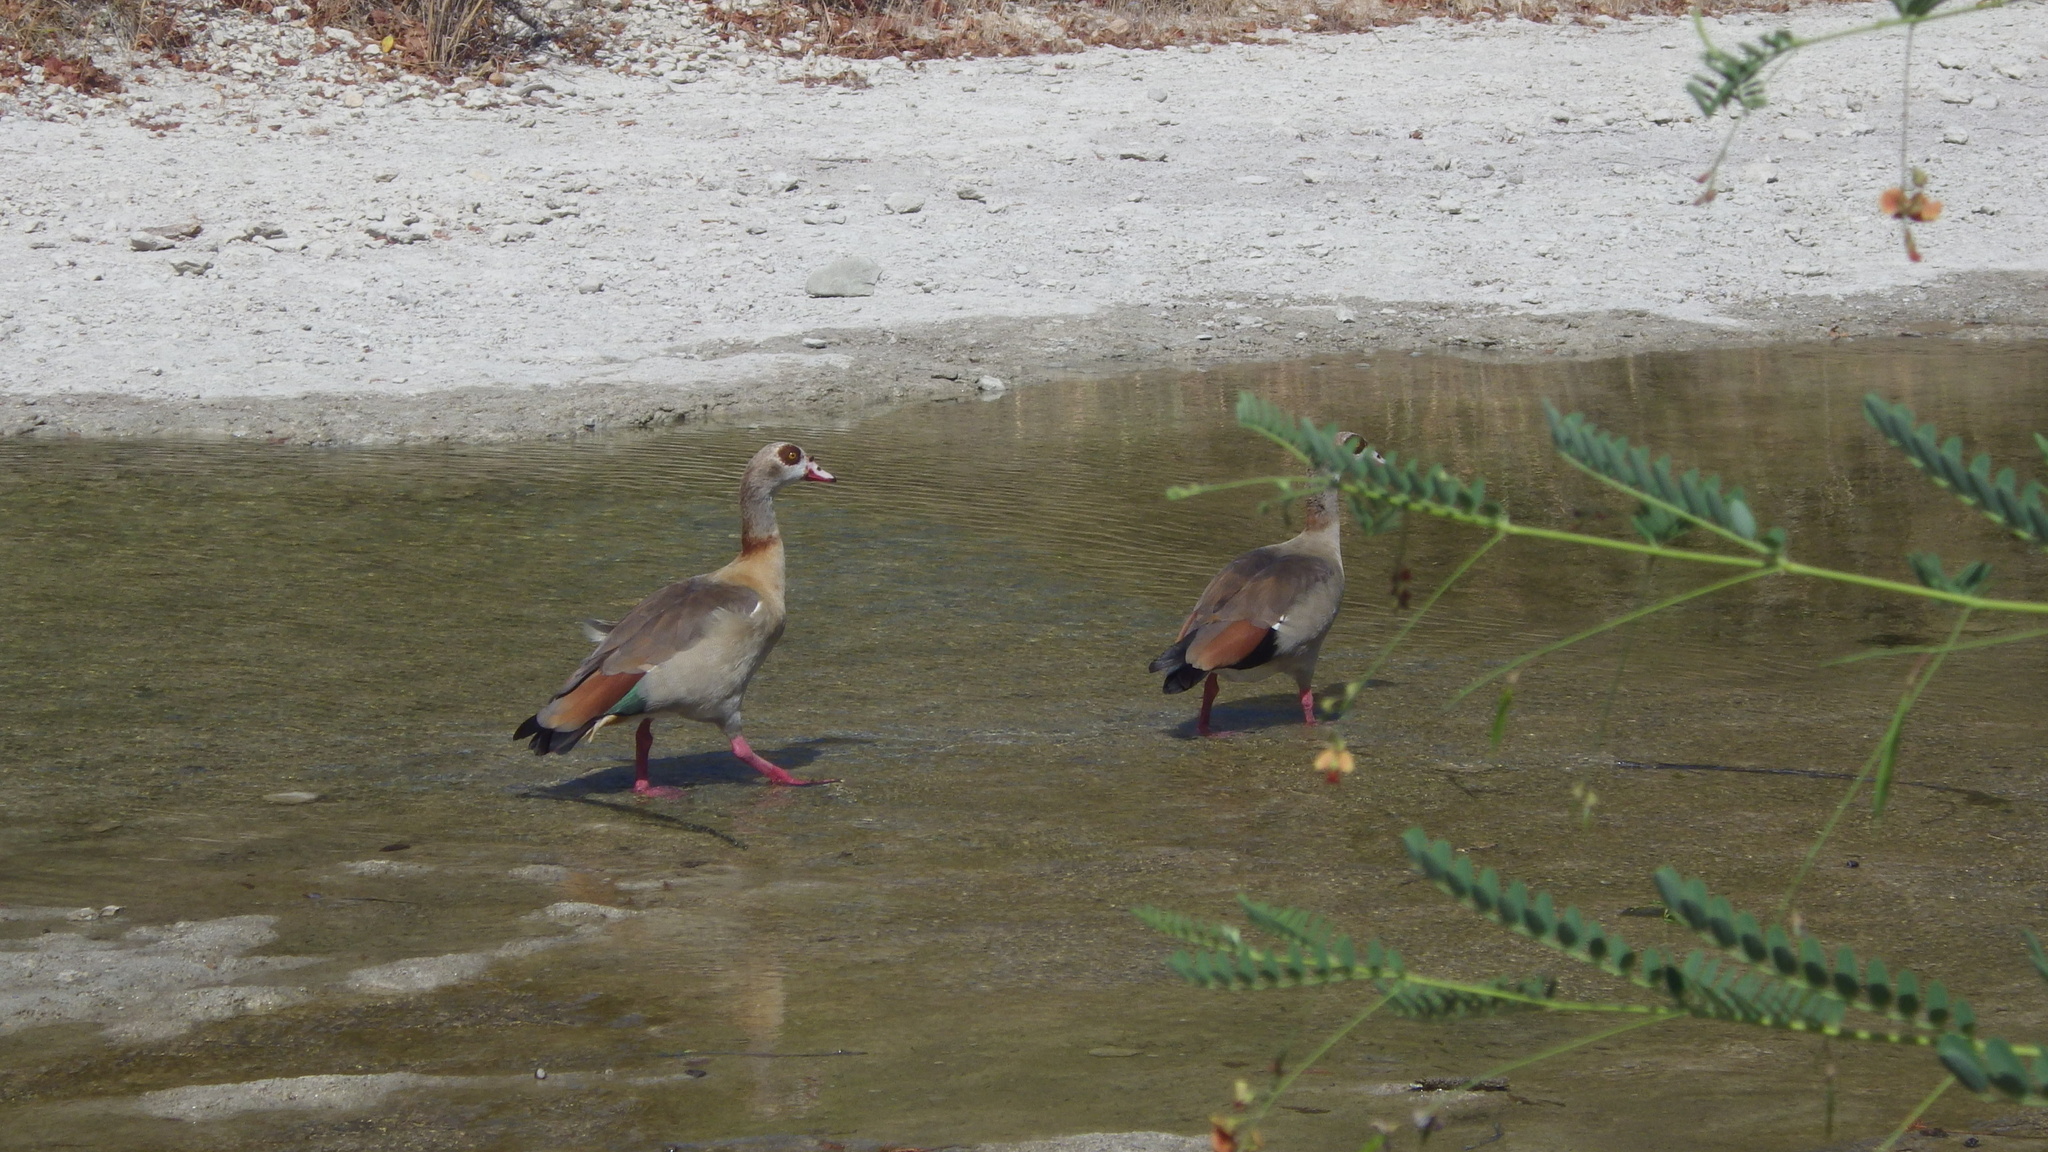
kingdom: Animalia
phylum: Chordata
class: Aves
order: Anseriformes
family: Anatidae
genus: Alopochen
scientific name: Alopochen aegyptiaca
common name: Egyptian goose
